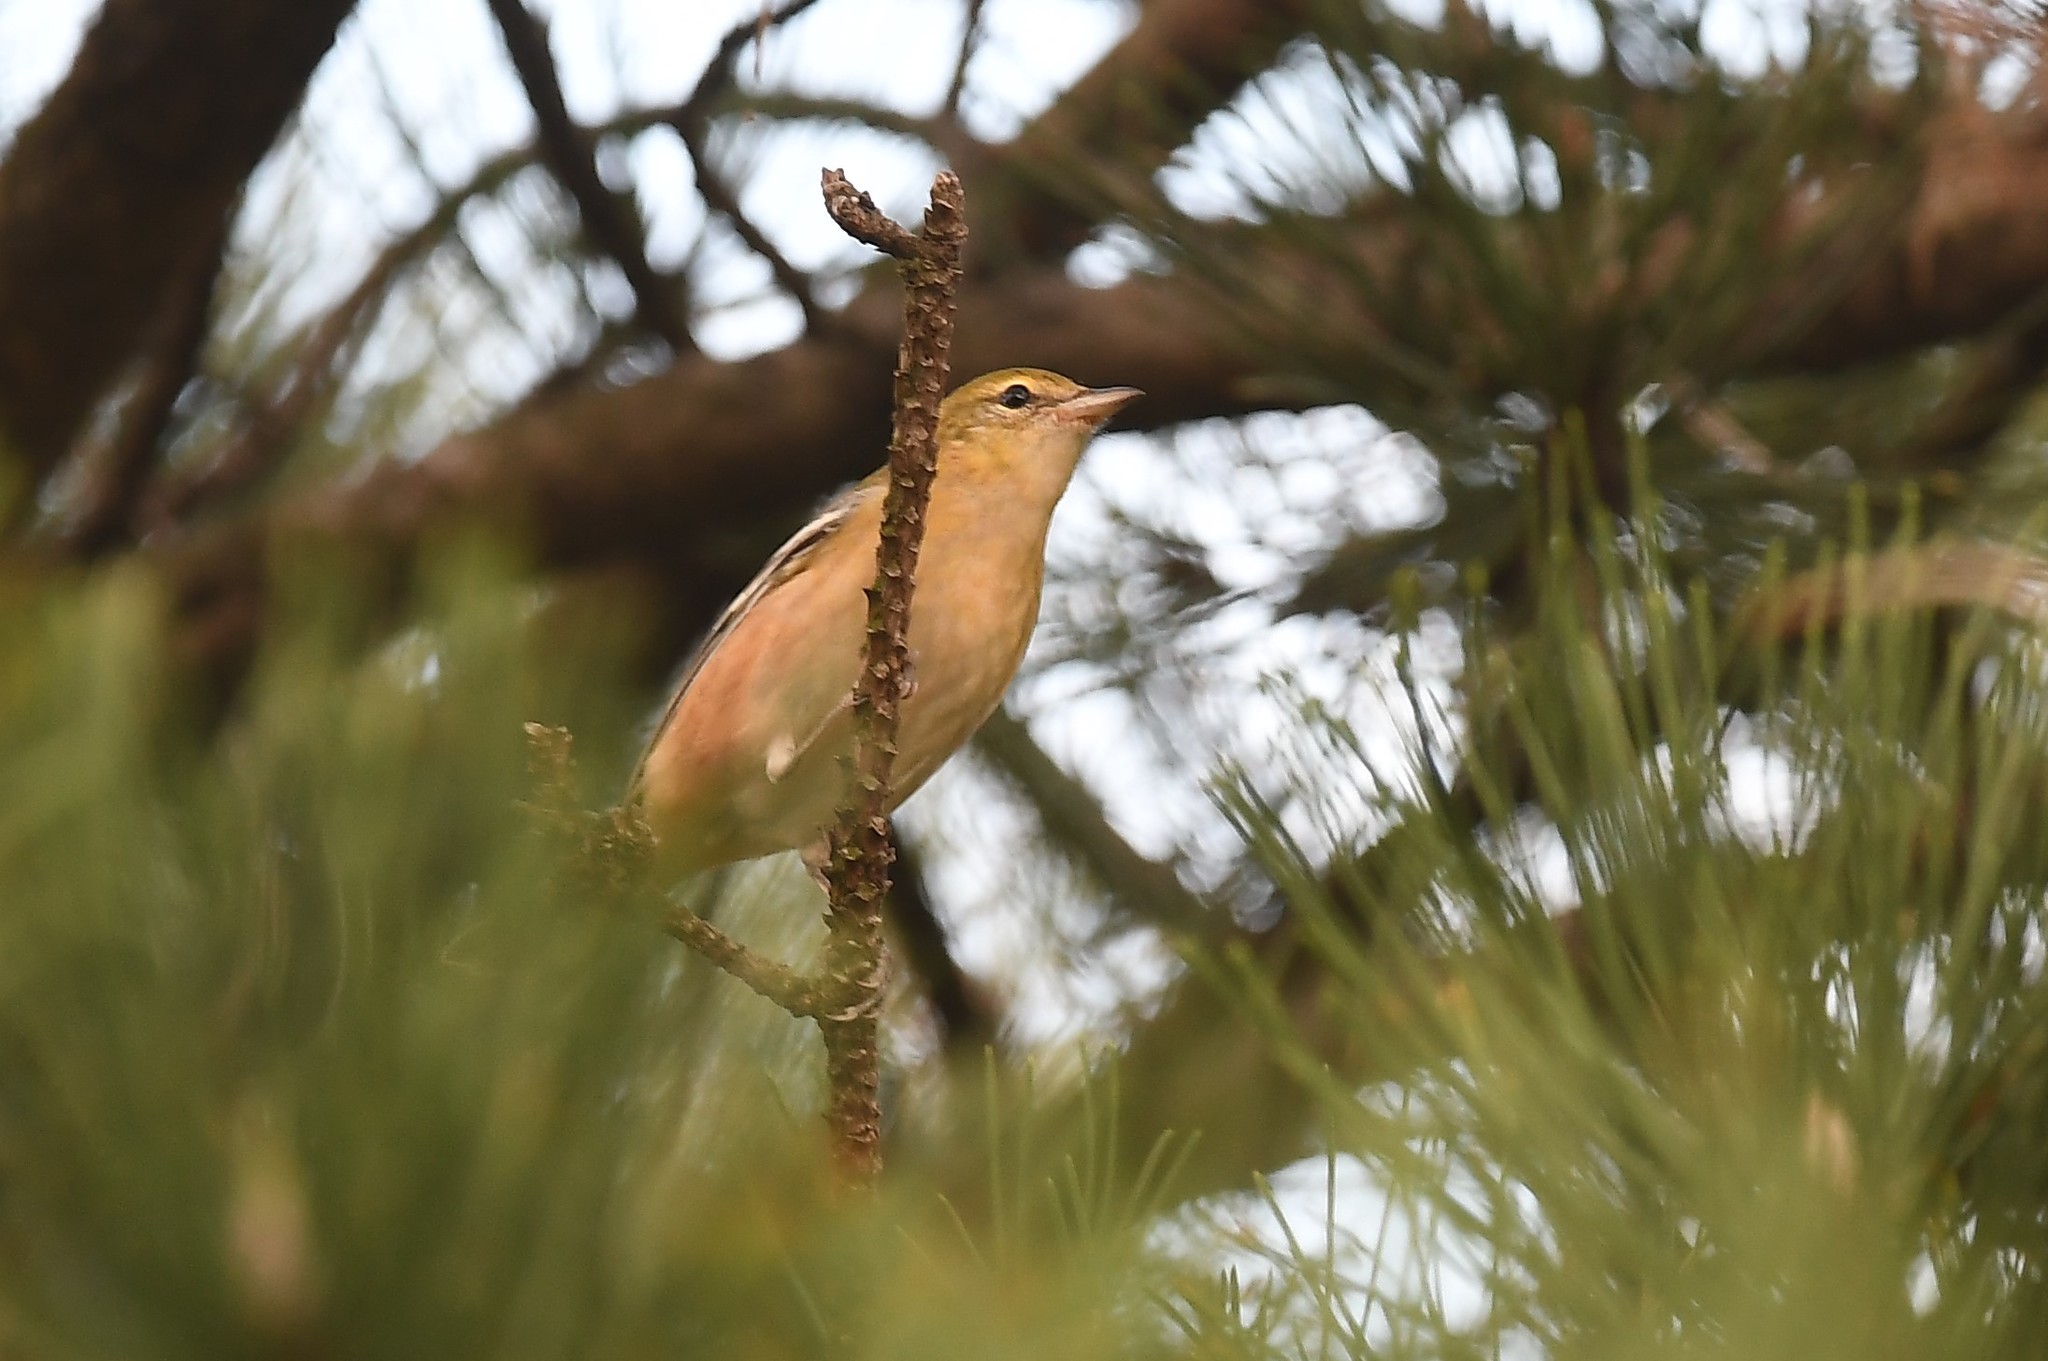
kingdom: Animalia
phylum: Chordata
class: Aves
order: Passeriformes
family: Parulidae
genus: Setophaga
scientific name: Setophaga castanea
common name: Bay-breasted warbler
